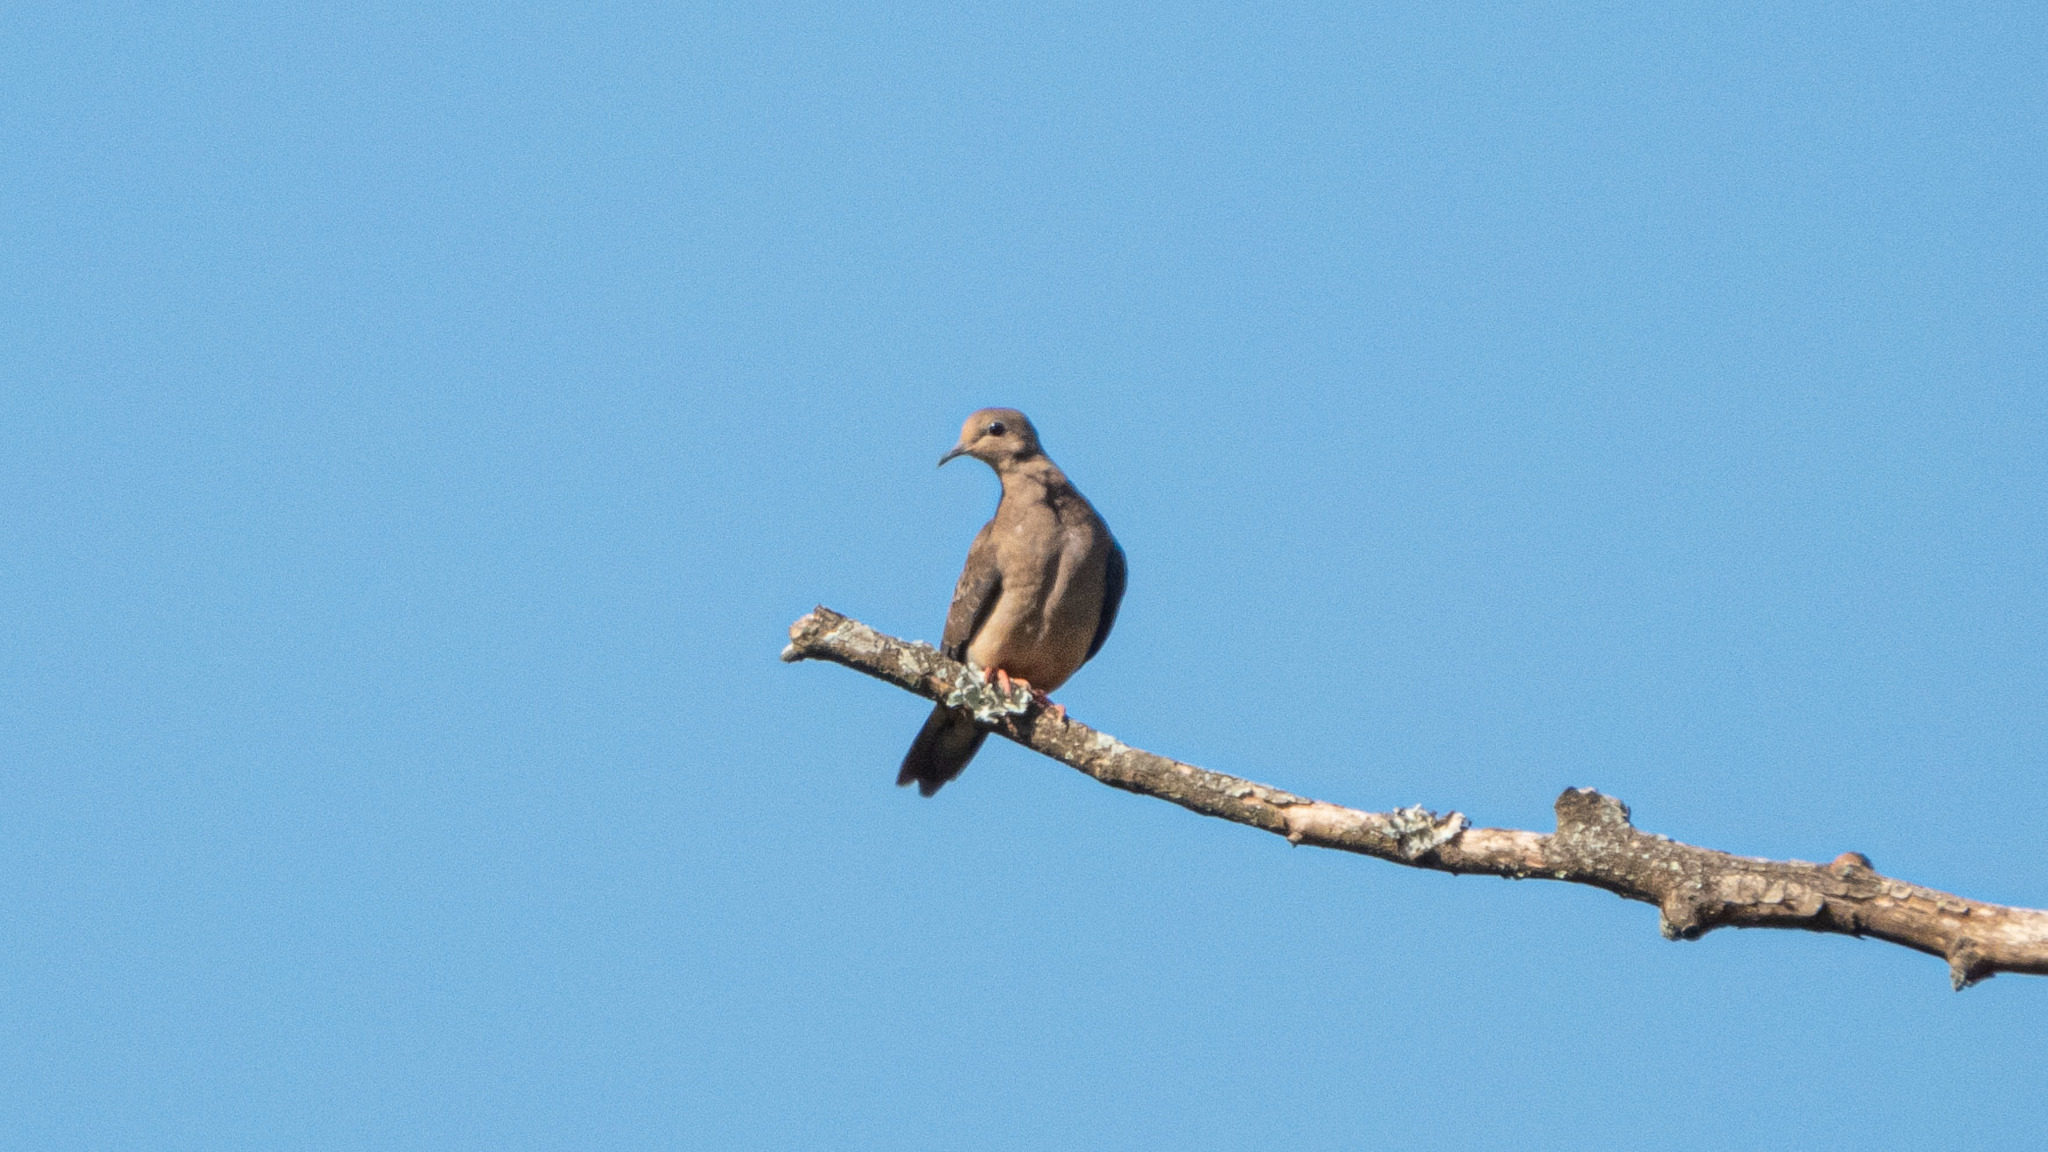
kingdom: Animalia
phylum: Chordata
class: Aves
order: Columbiformes
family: Columbidae
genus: Zenaida
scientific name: Zenaida macroura
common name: Mourning dove
